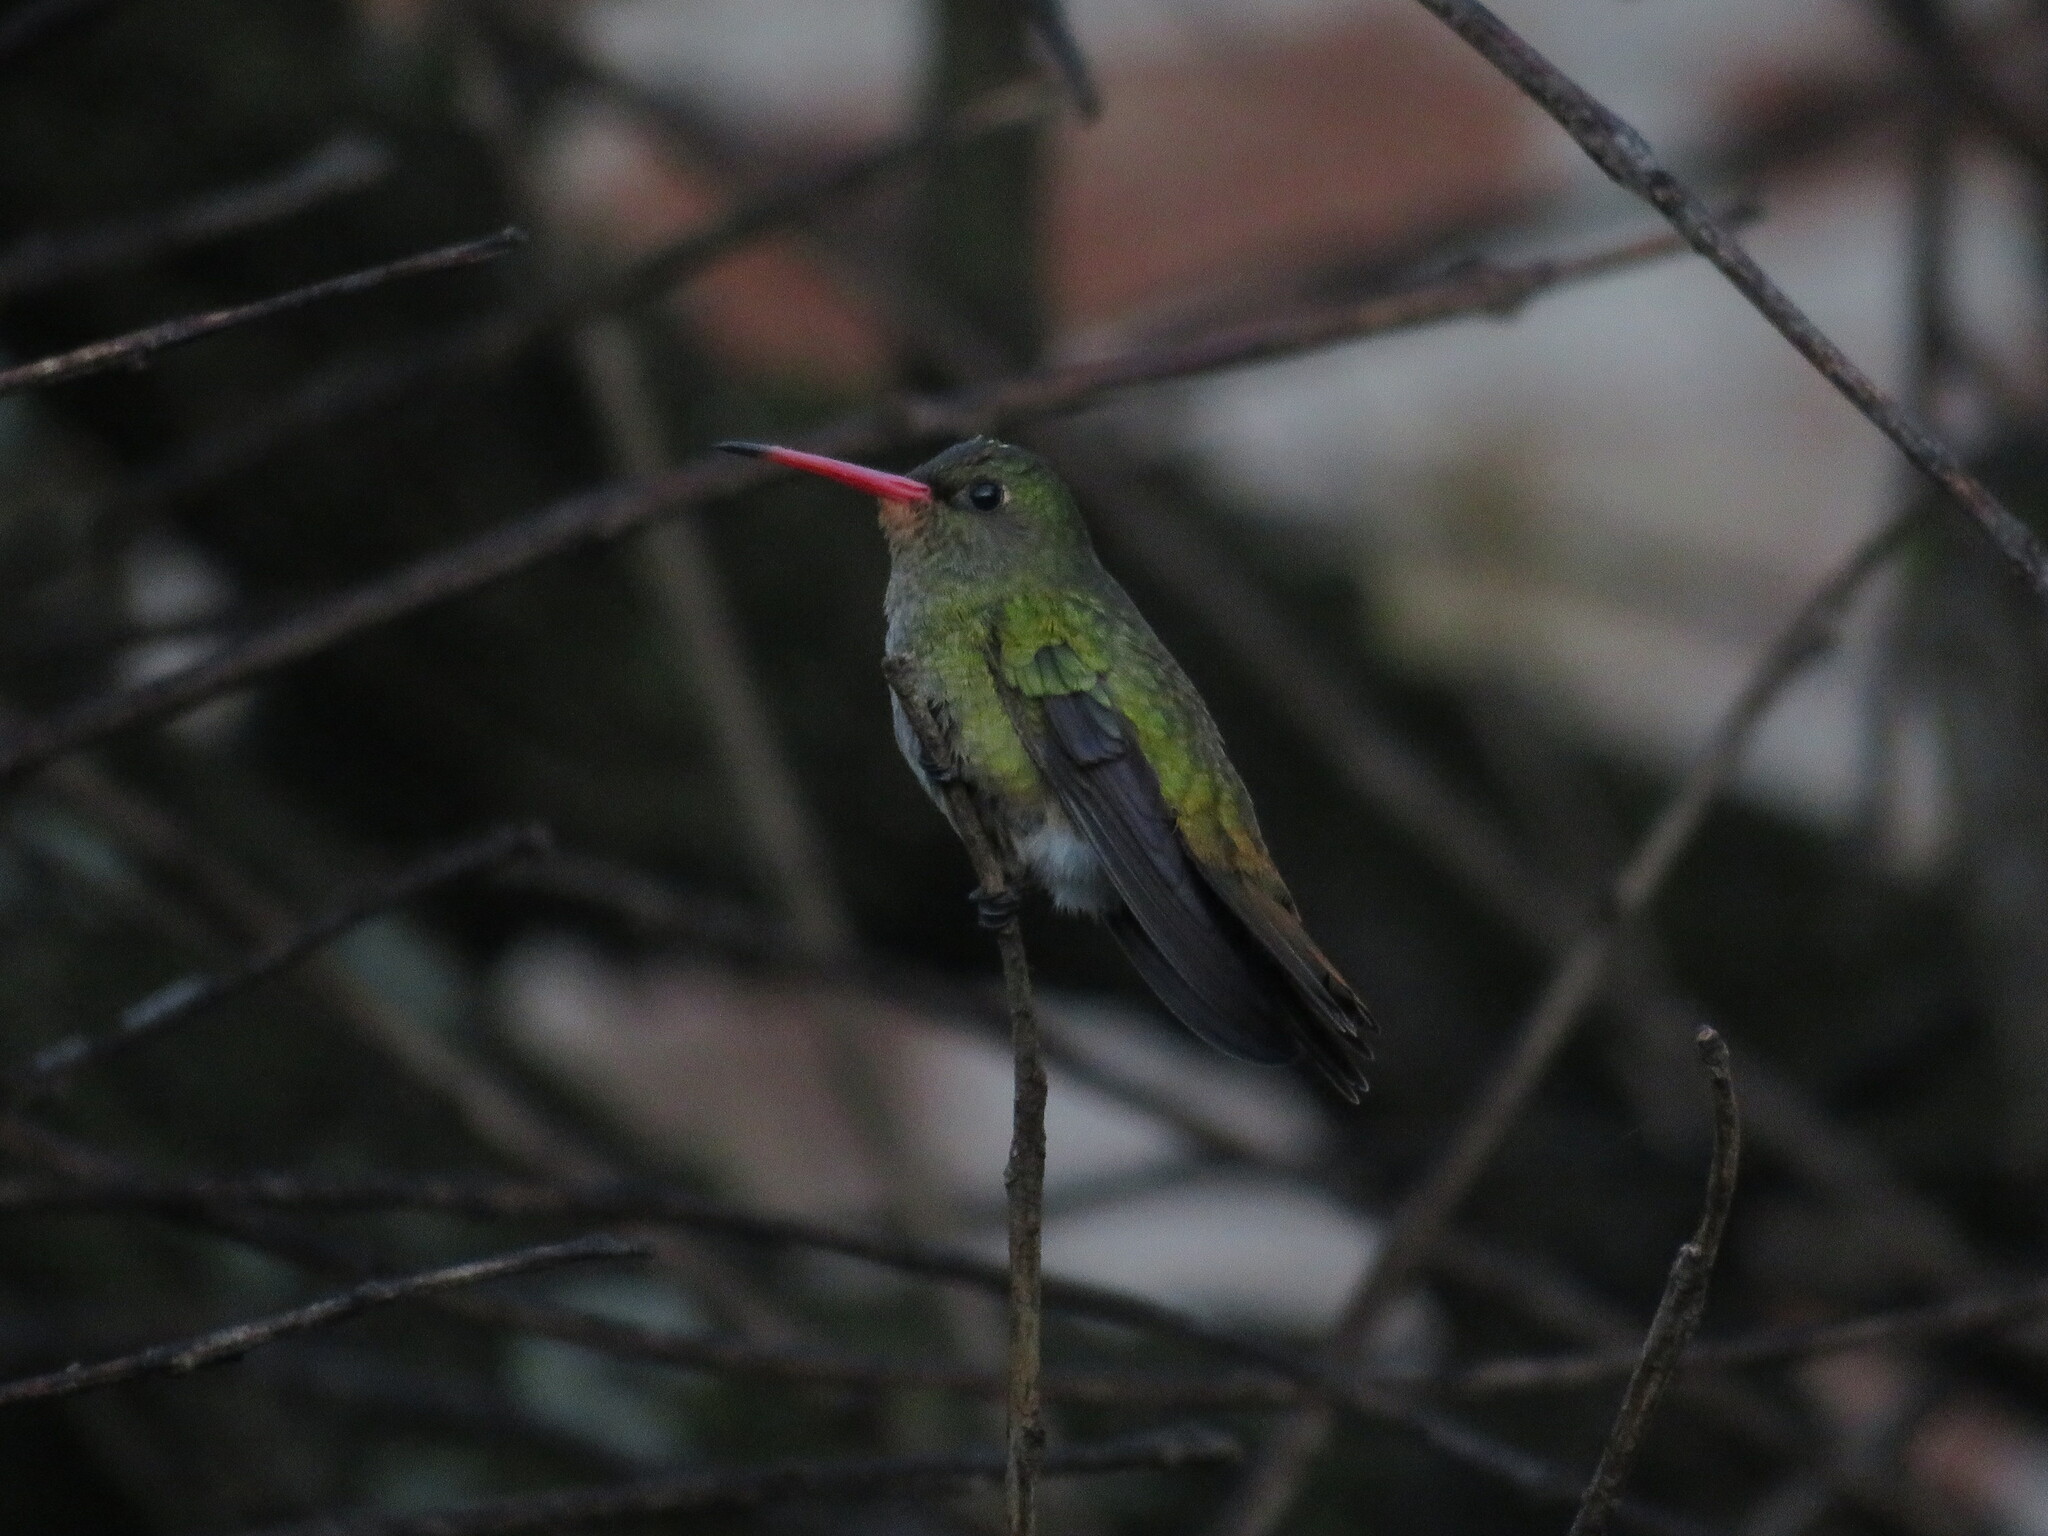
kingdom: Animalia
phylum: Chordata
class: Aves
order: Apodiformes
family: Trochilidae
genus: Hylocharis
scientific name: Hylocharis chrysura
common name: Gilded sapphire
